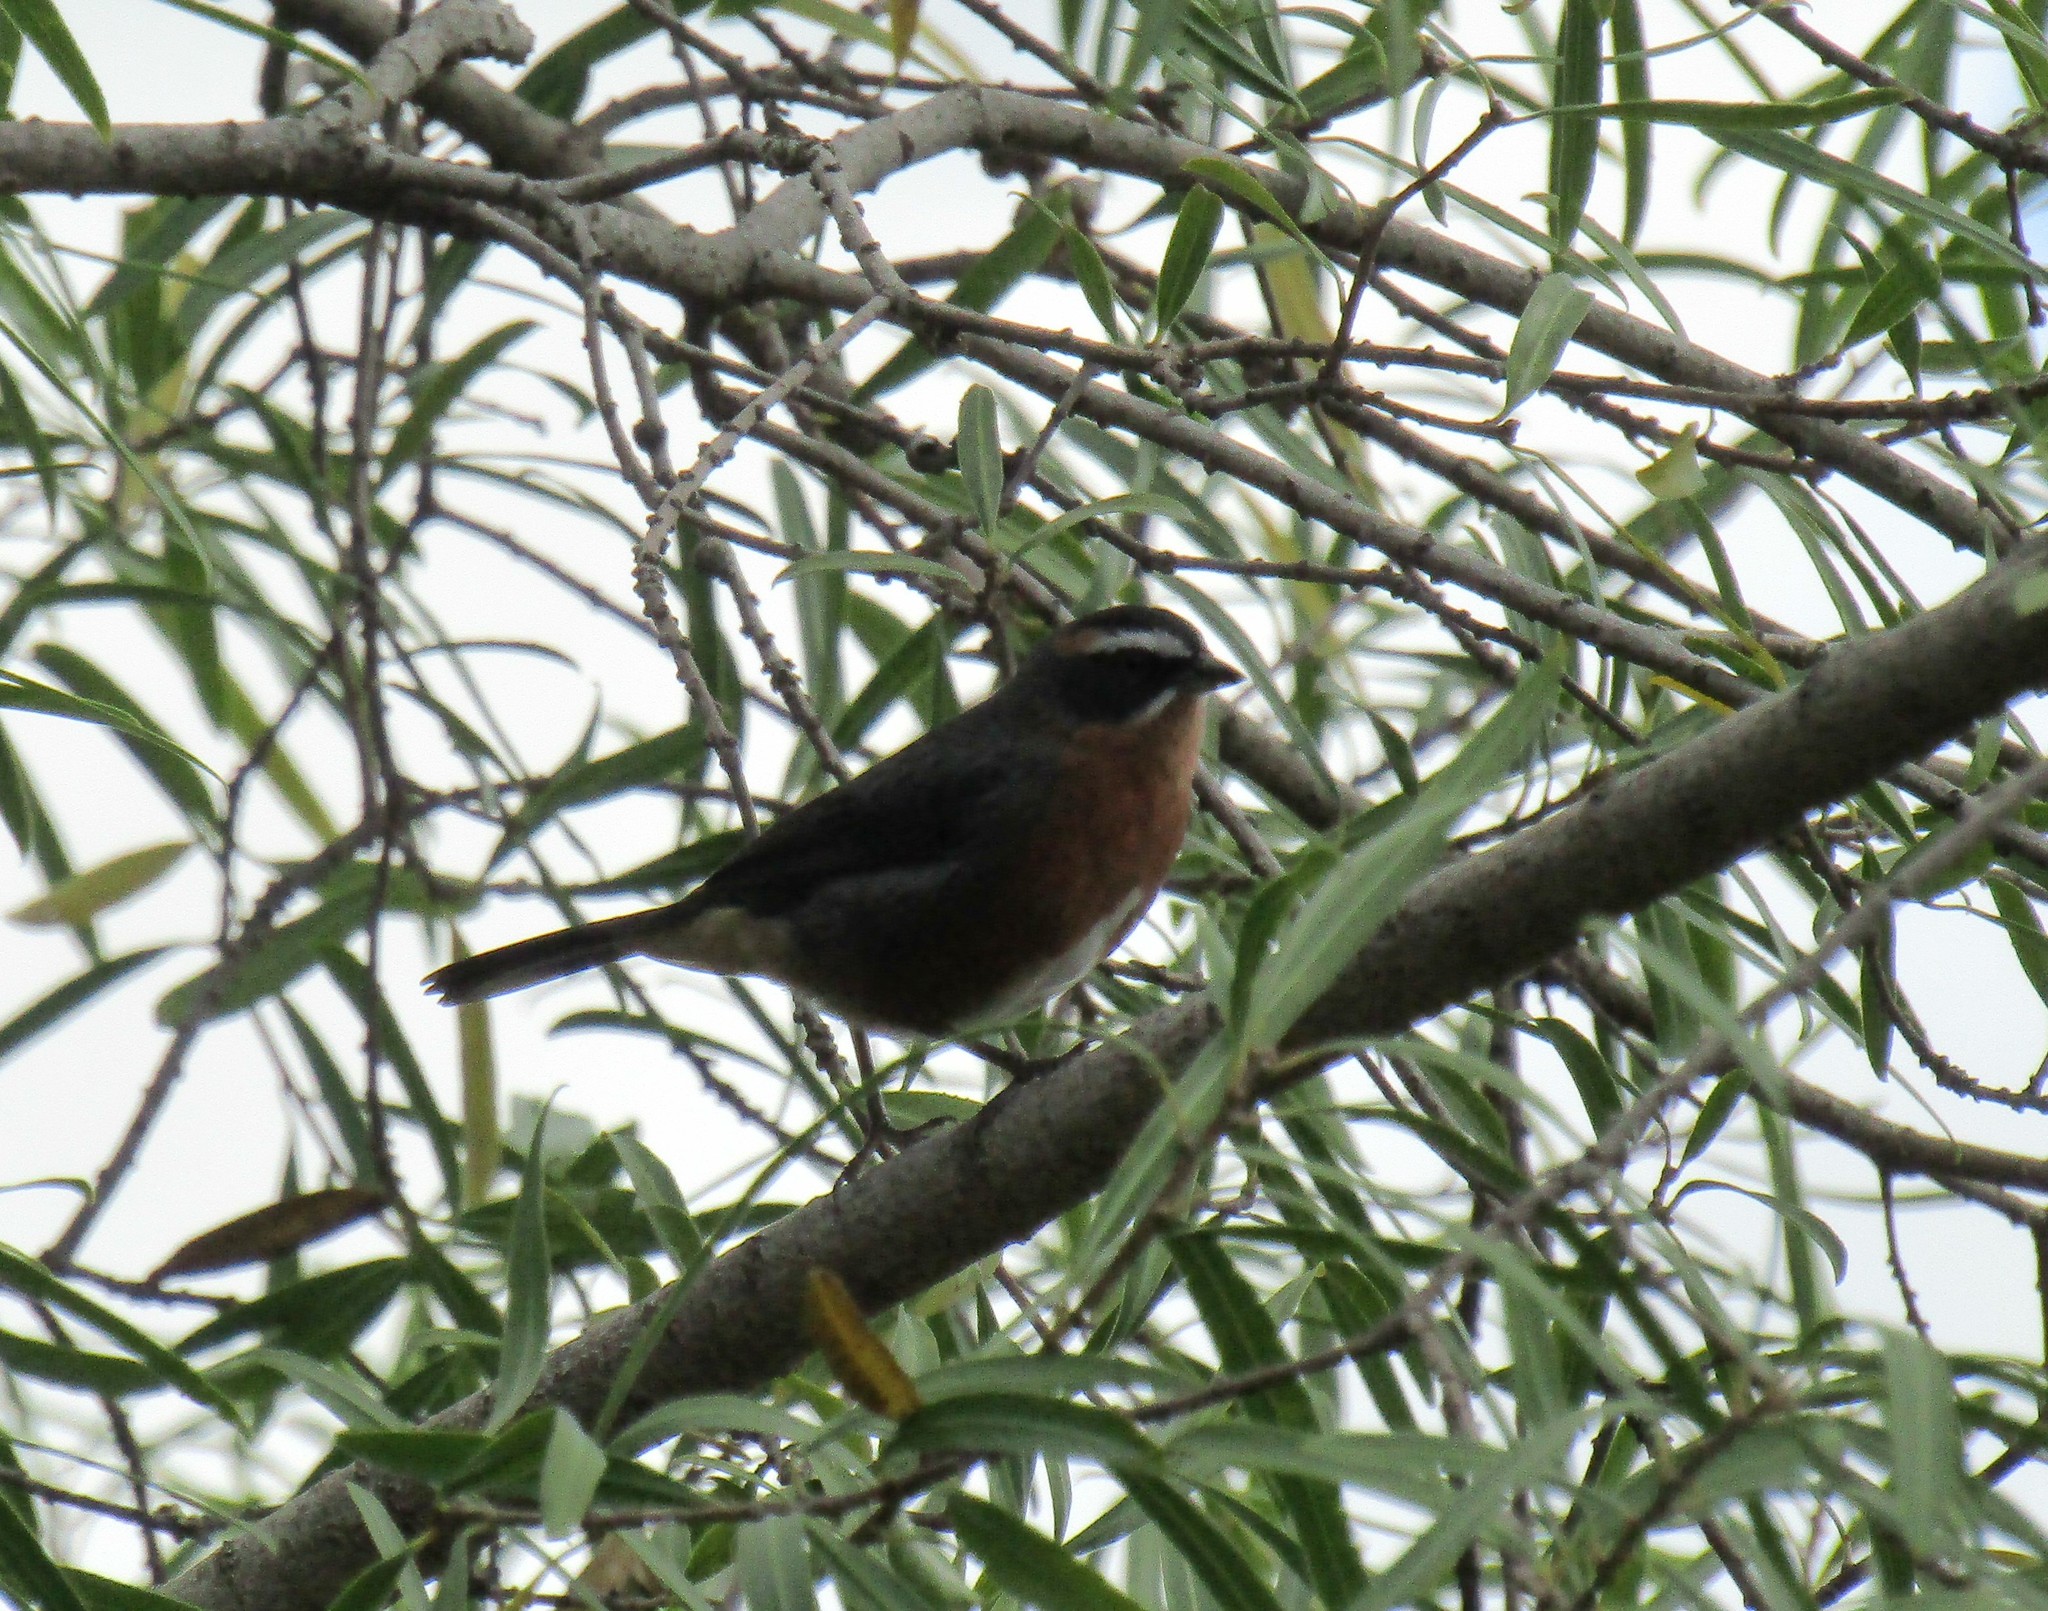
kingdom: Animalia
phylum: Chordata
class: Aves
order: Passeriformes
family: Thraupidae
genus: Poospiza
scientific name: Poospiza nigrorufa
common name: Black-and-rufous warbling finch
